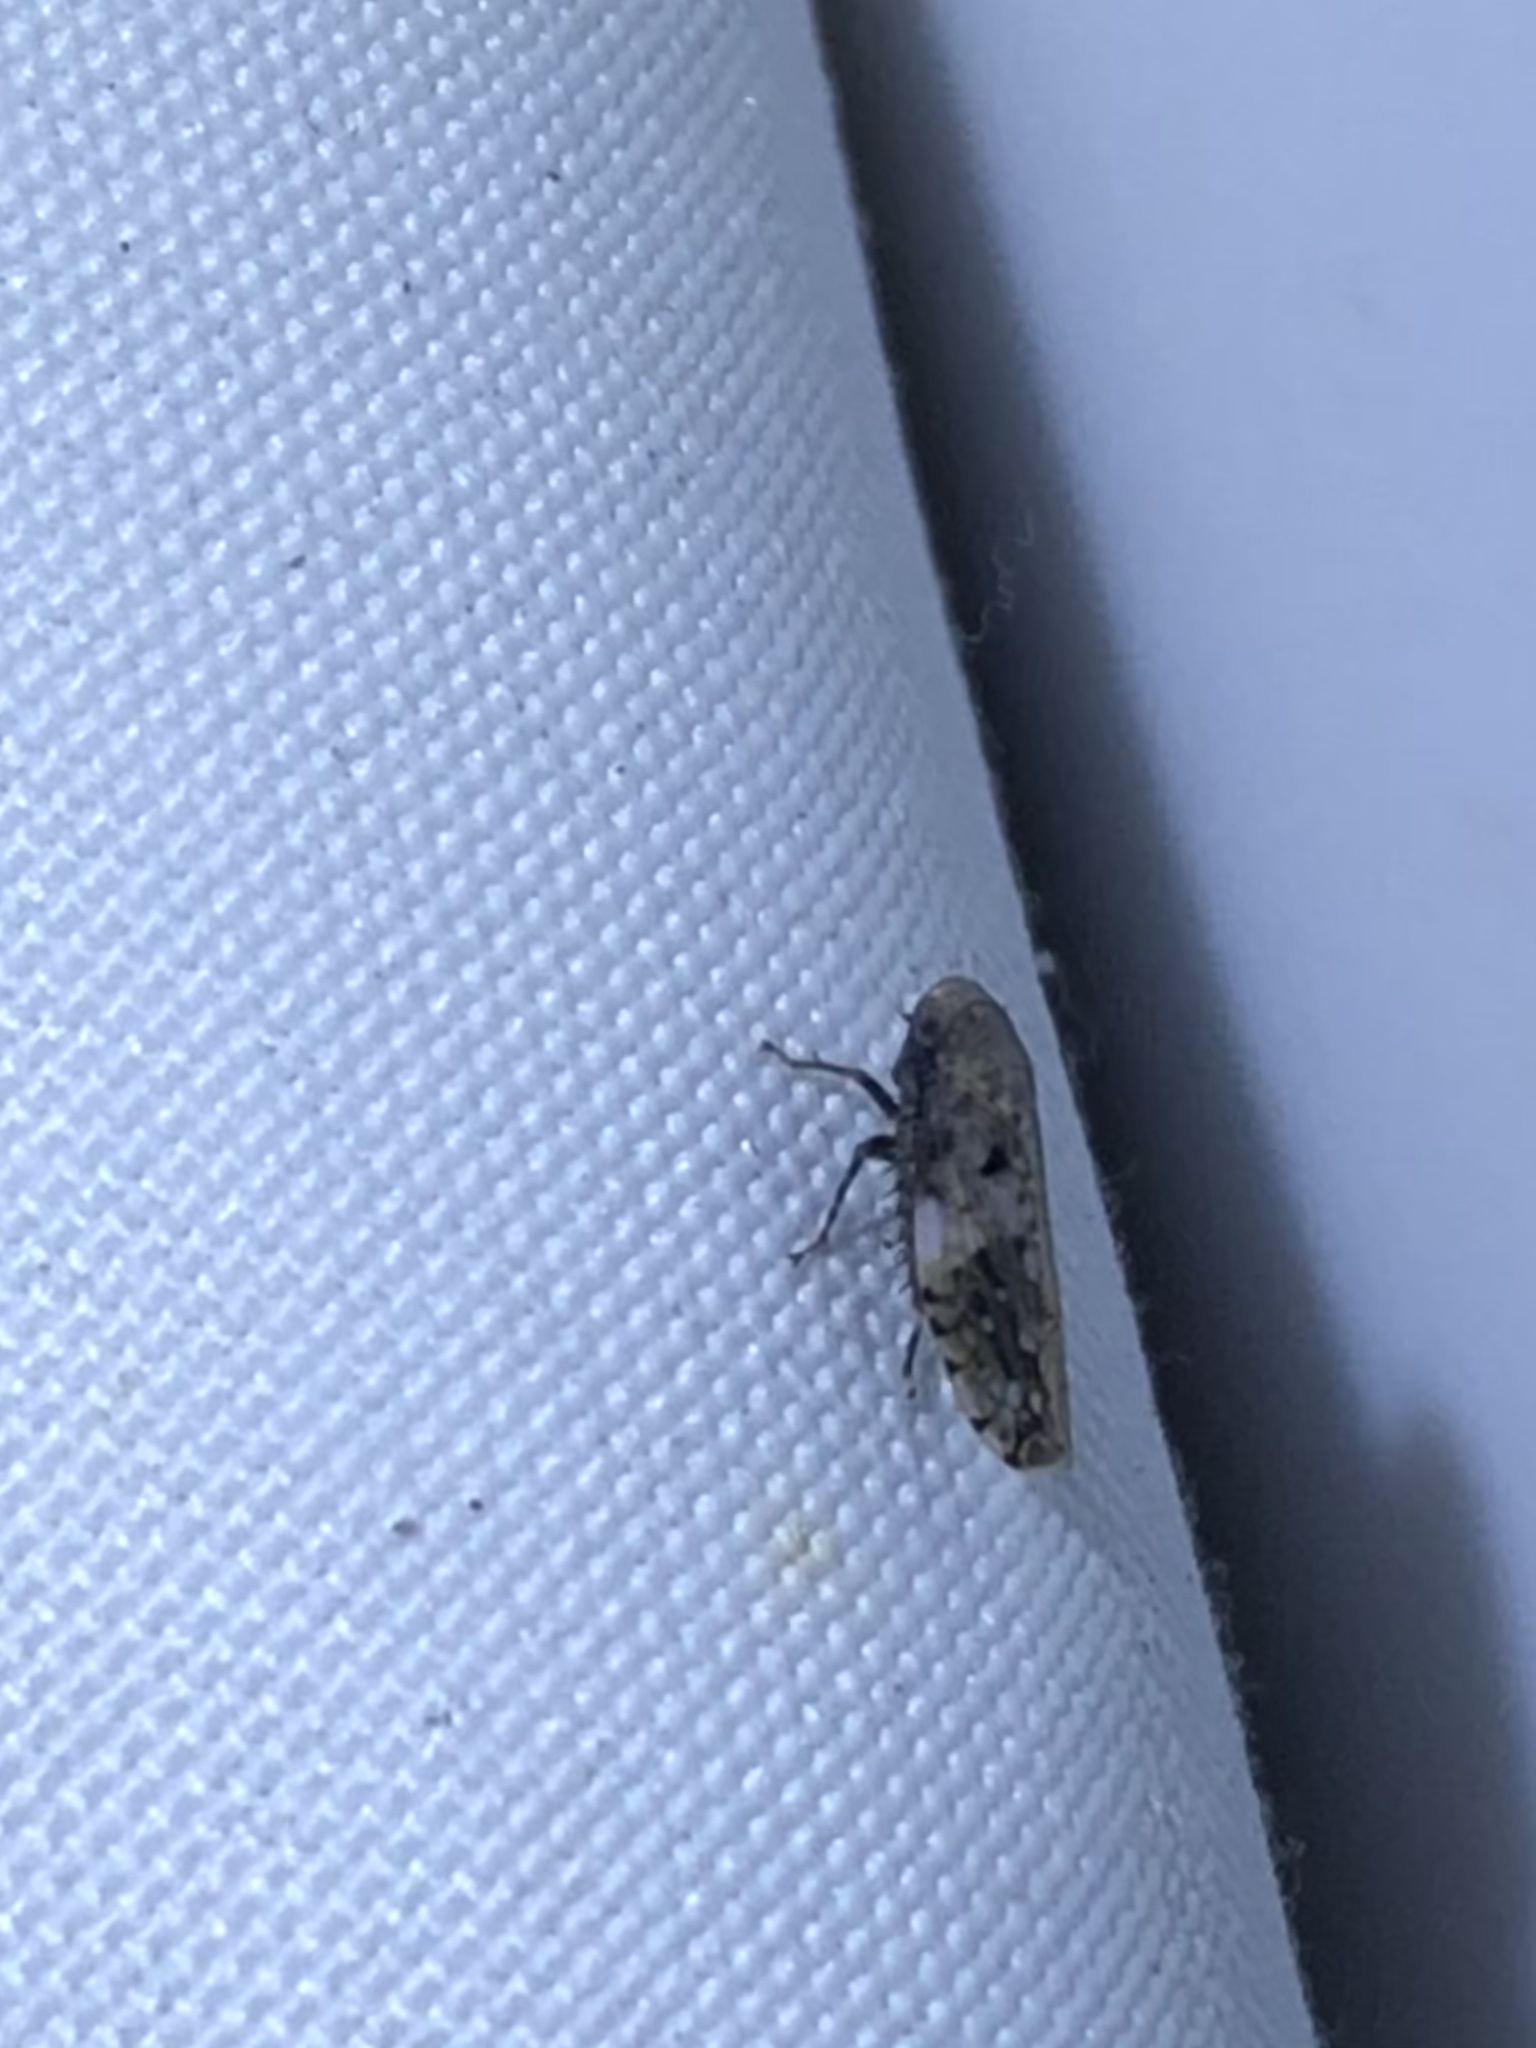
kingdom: Animalia
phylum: Arthropoda
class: Insecta
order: Hemiptera
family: Cicadellidae
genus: Menosoma
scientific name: Menosoma cinctum
